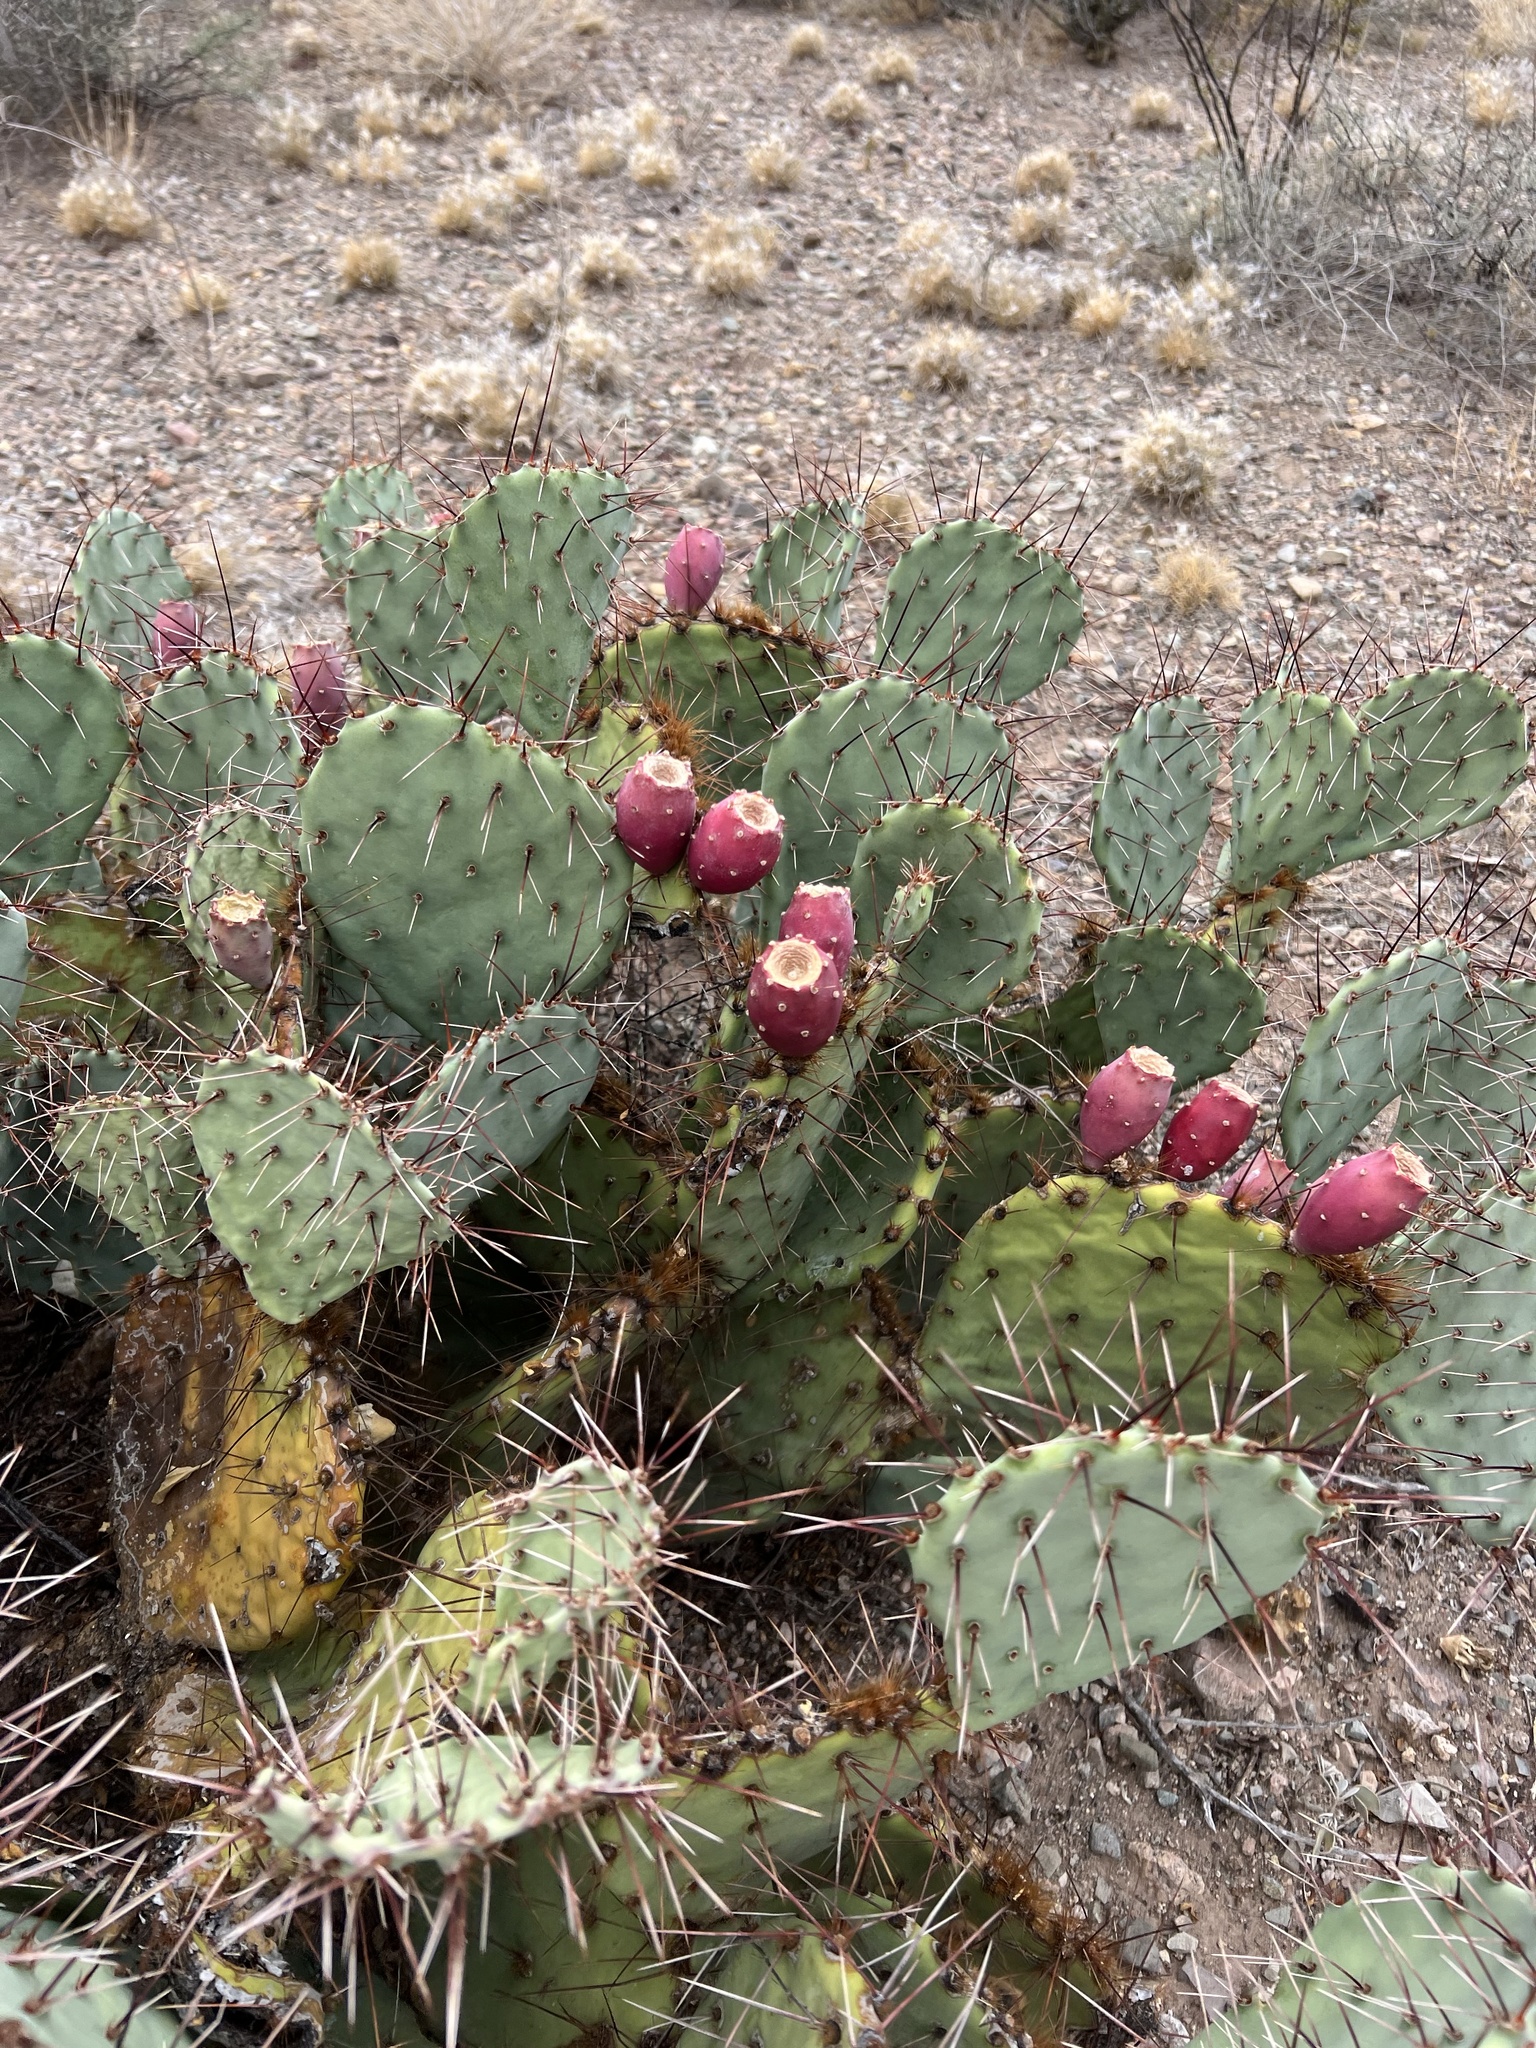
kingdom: Plantae
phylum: Tracheophyta
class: Magnoliopsida
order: Caryophyllales
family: Cactaceae
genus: Opuntia
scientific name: Opuntia phaeacantha
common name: New mexico prickly-pear
